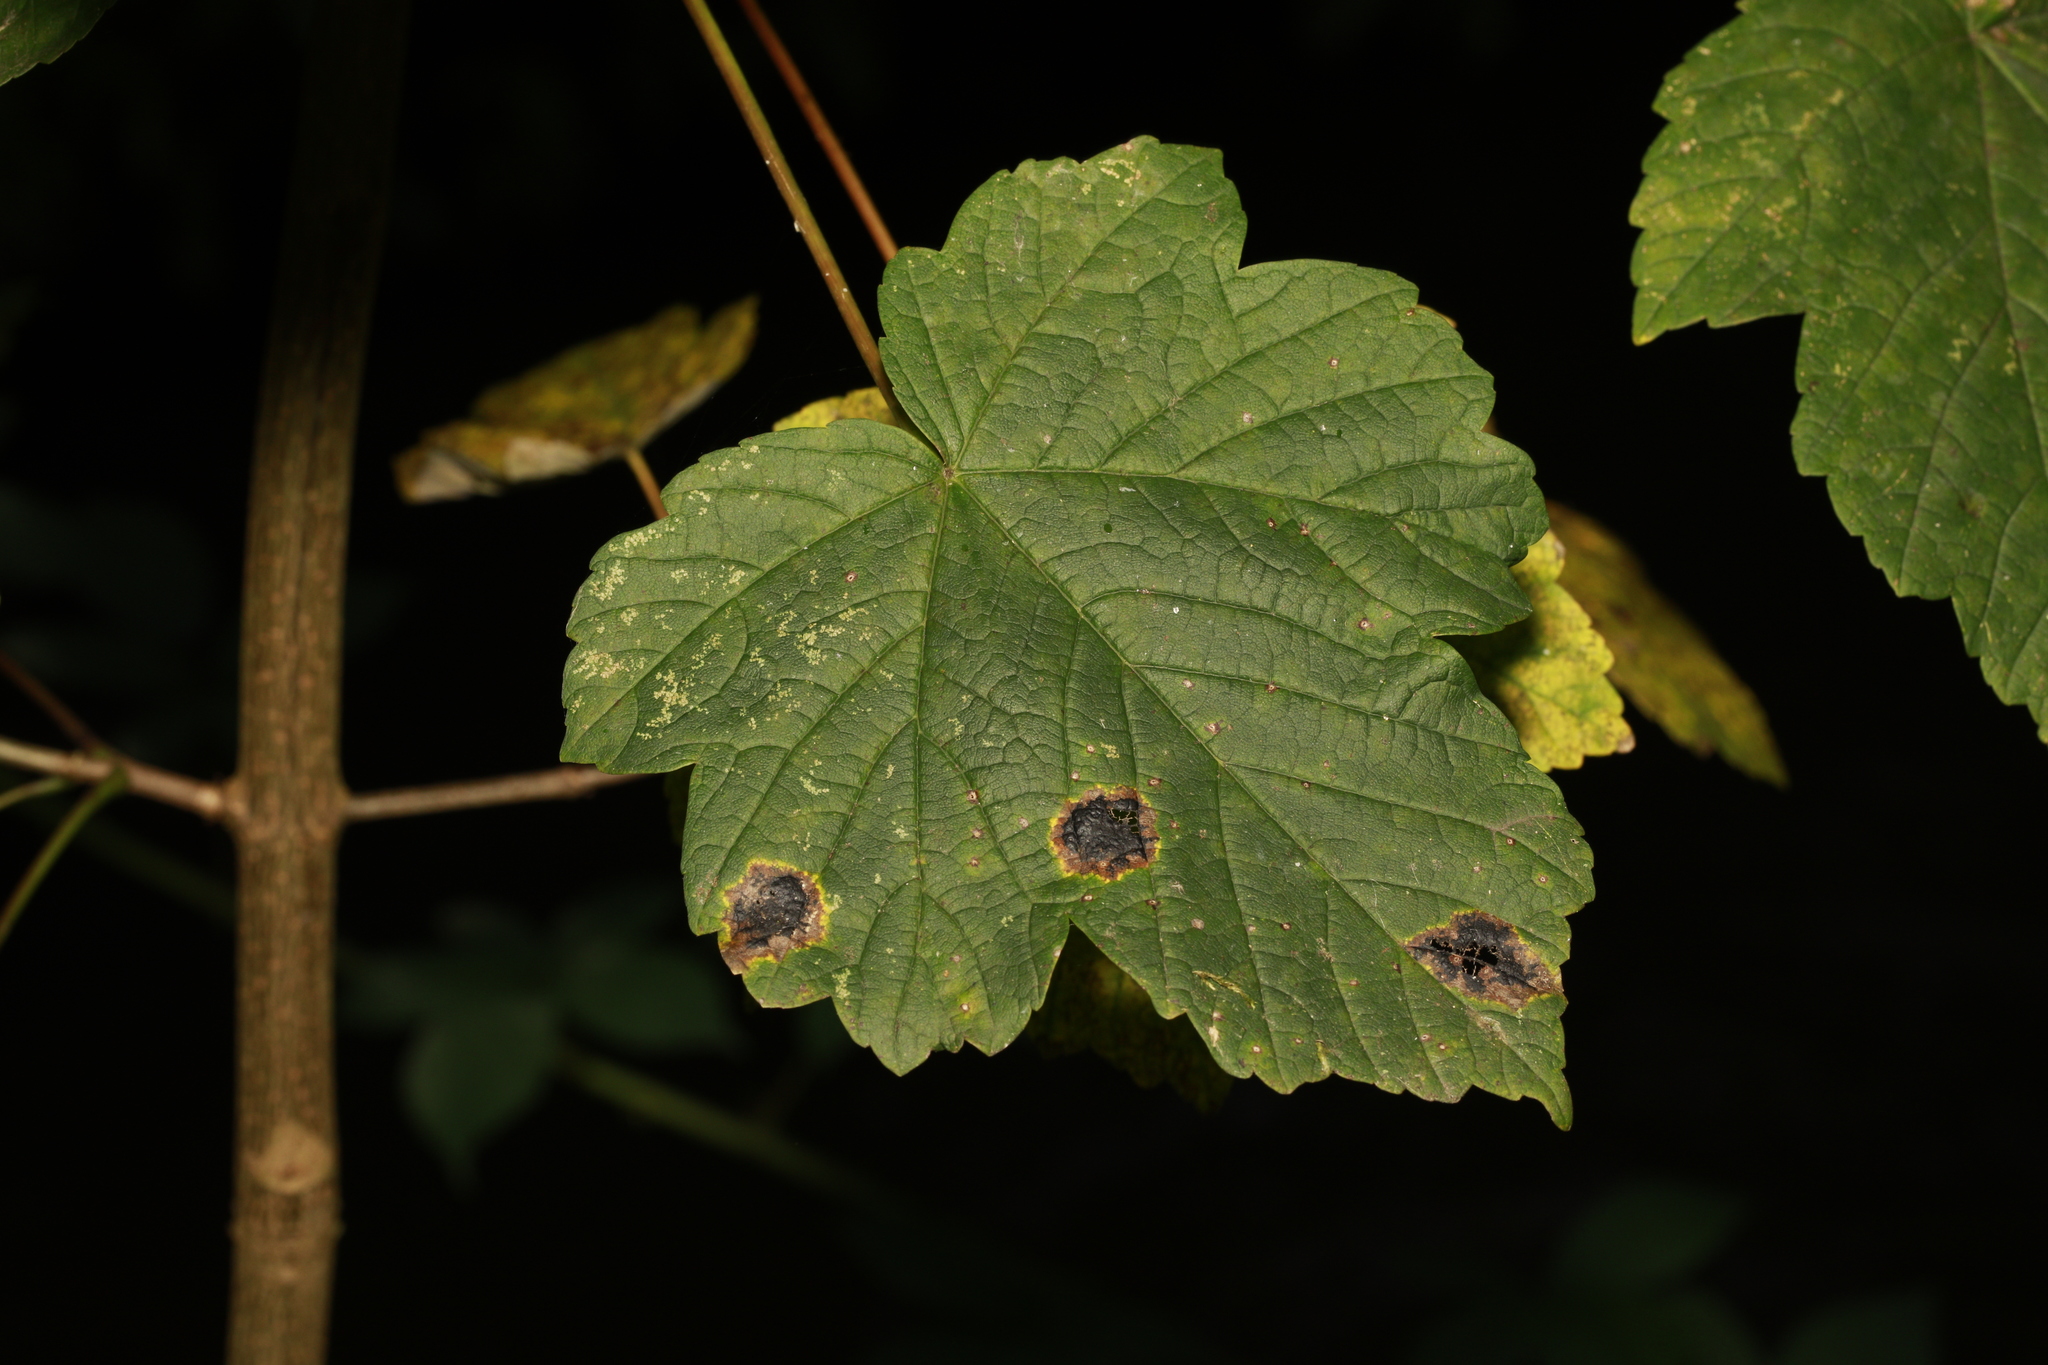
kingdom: Plantae
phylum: Tracheophyta
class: Magnoliopsida
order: Sapindales
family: Sapindaceae
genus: Acer
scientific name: Acer pseudoplatanus
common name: Sycamore
